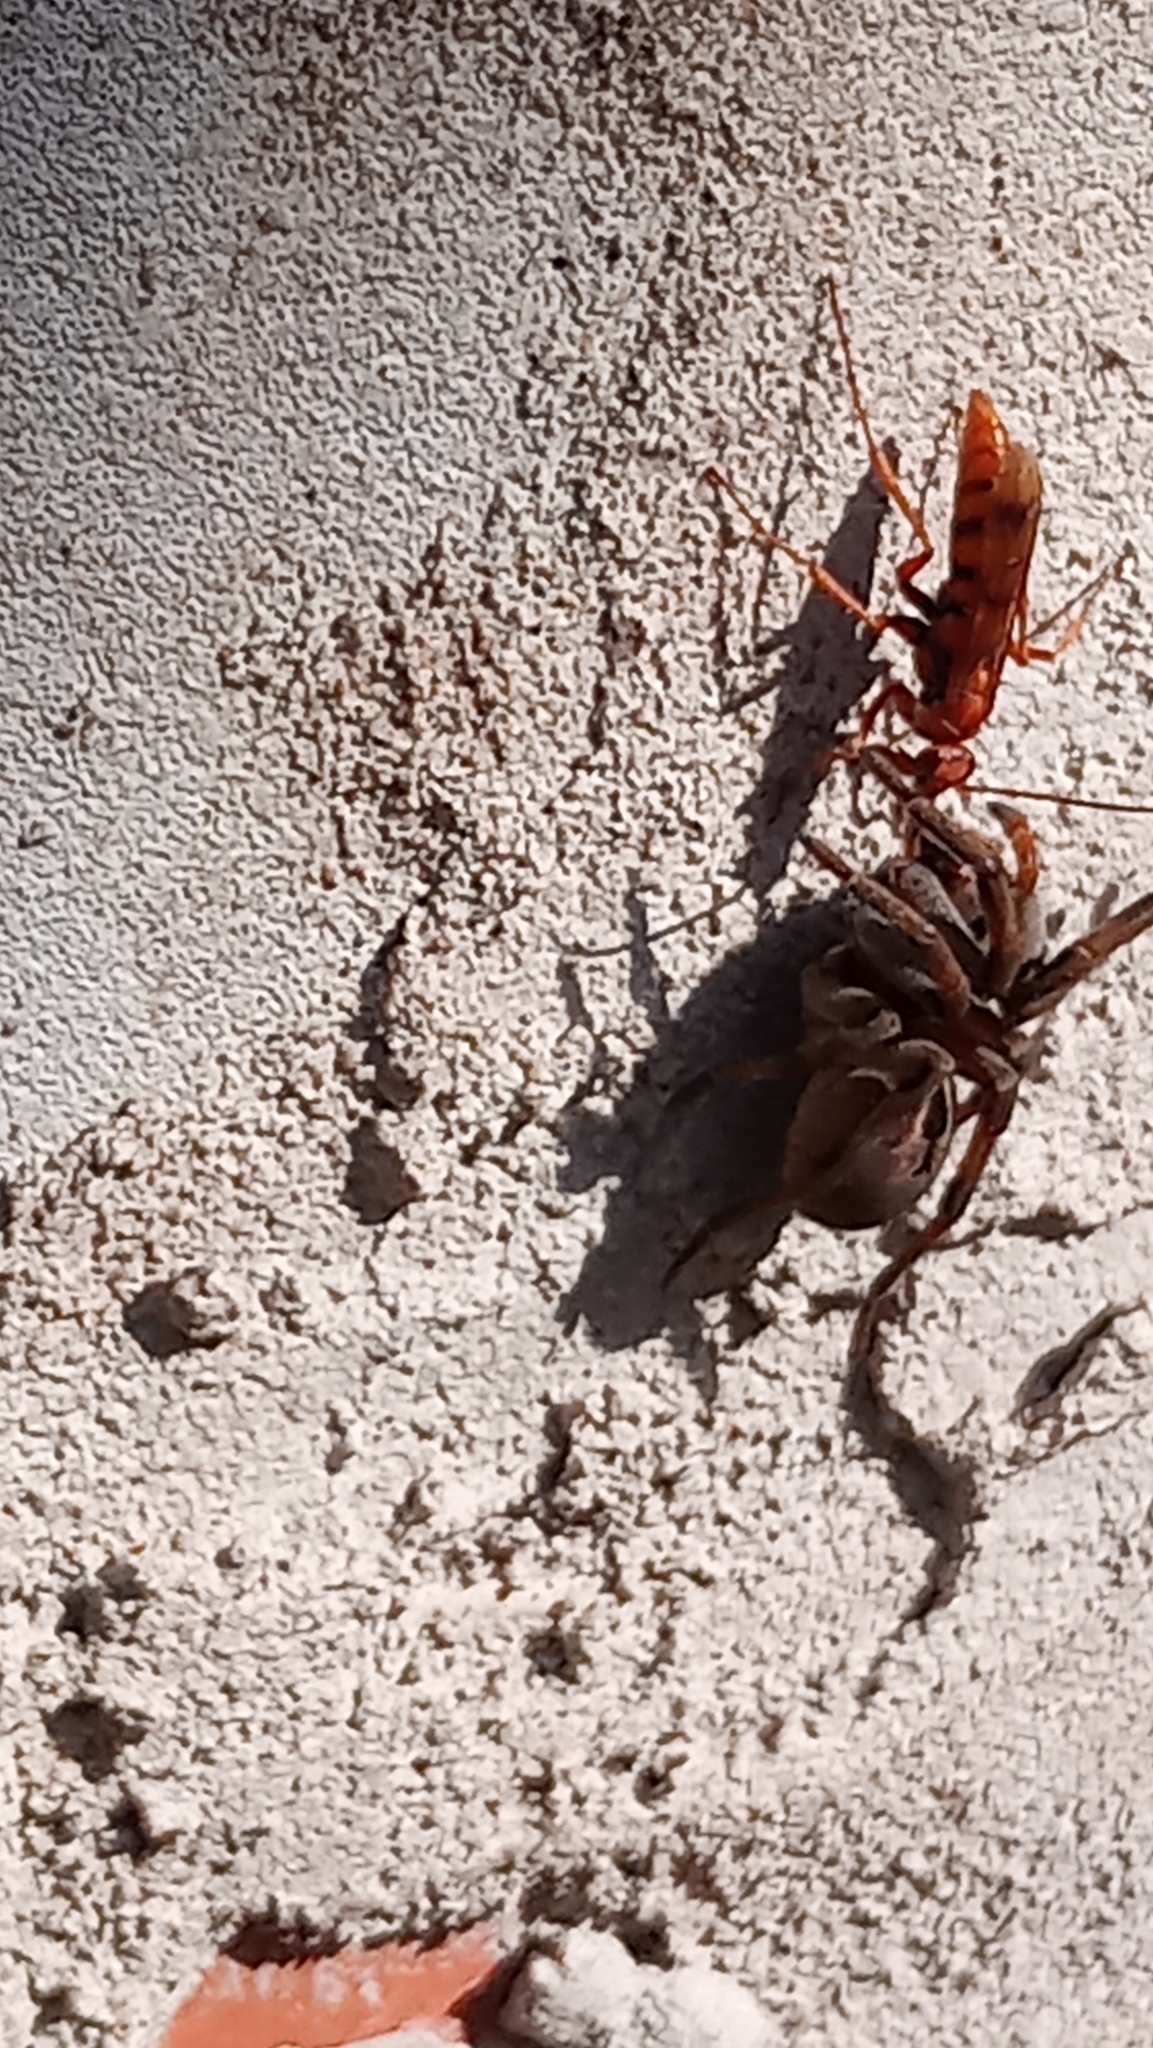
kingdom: Animalia
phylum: Arthropoda
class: Insecta
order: Hymenoptera
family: Pompilidae
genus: Tachypompilus
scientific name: Tachypompilus mendozae
